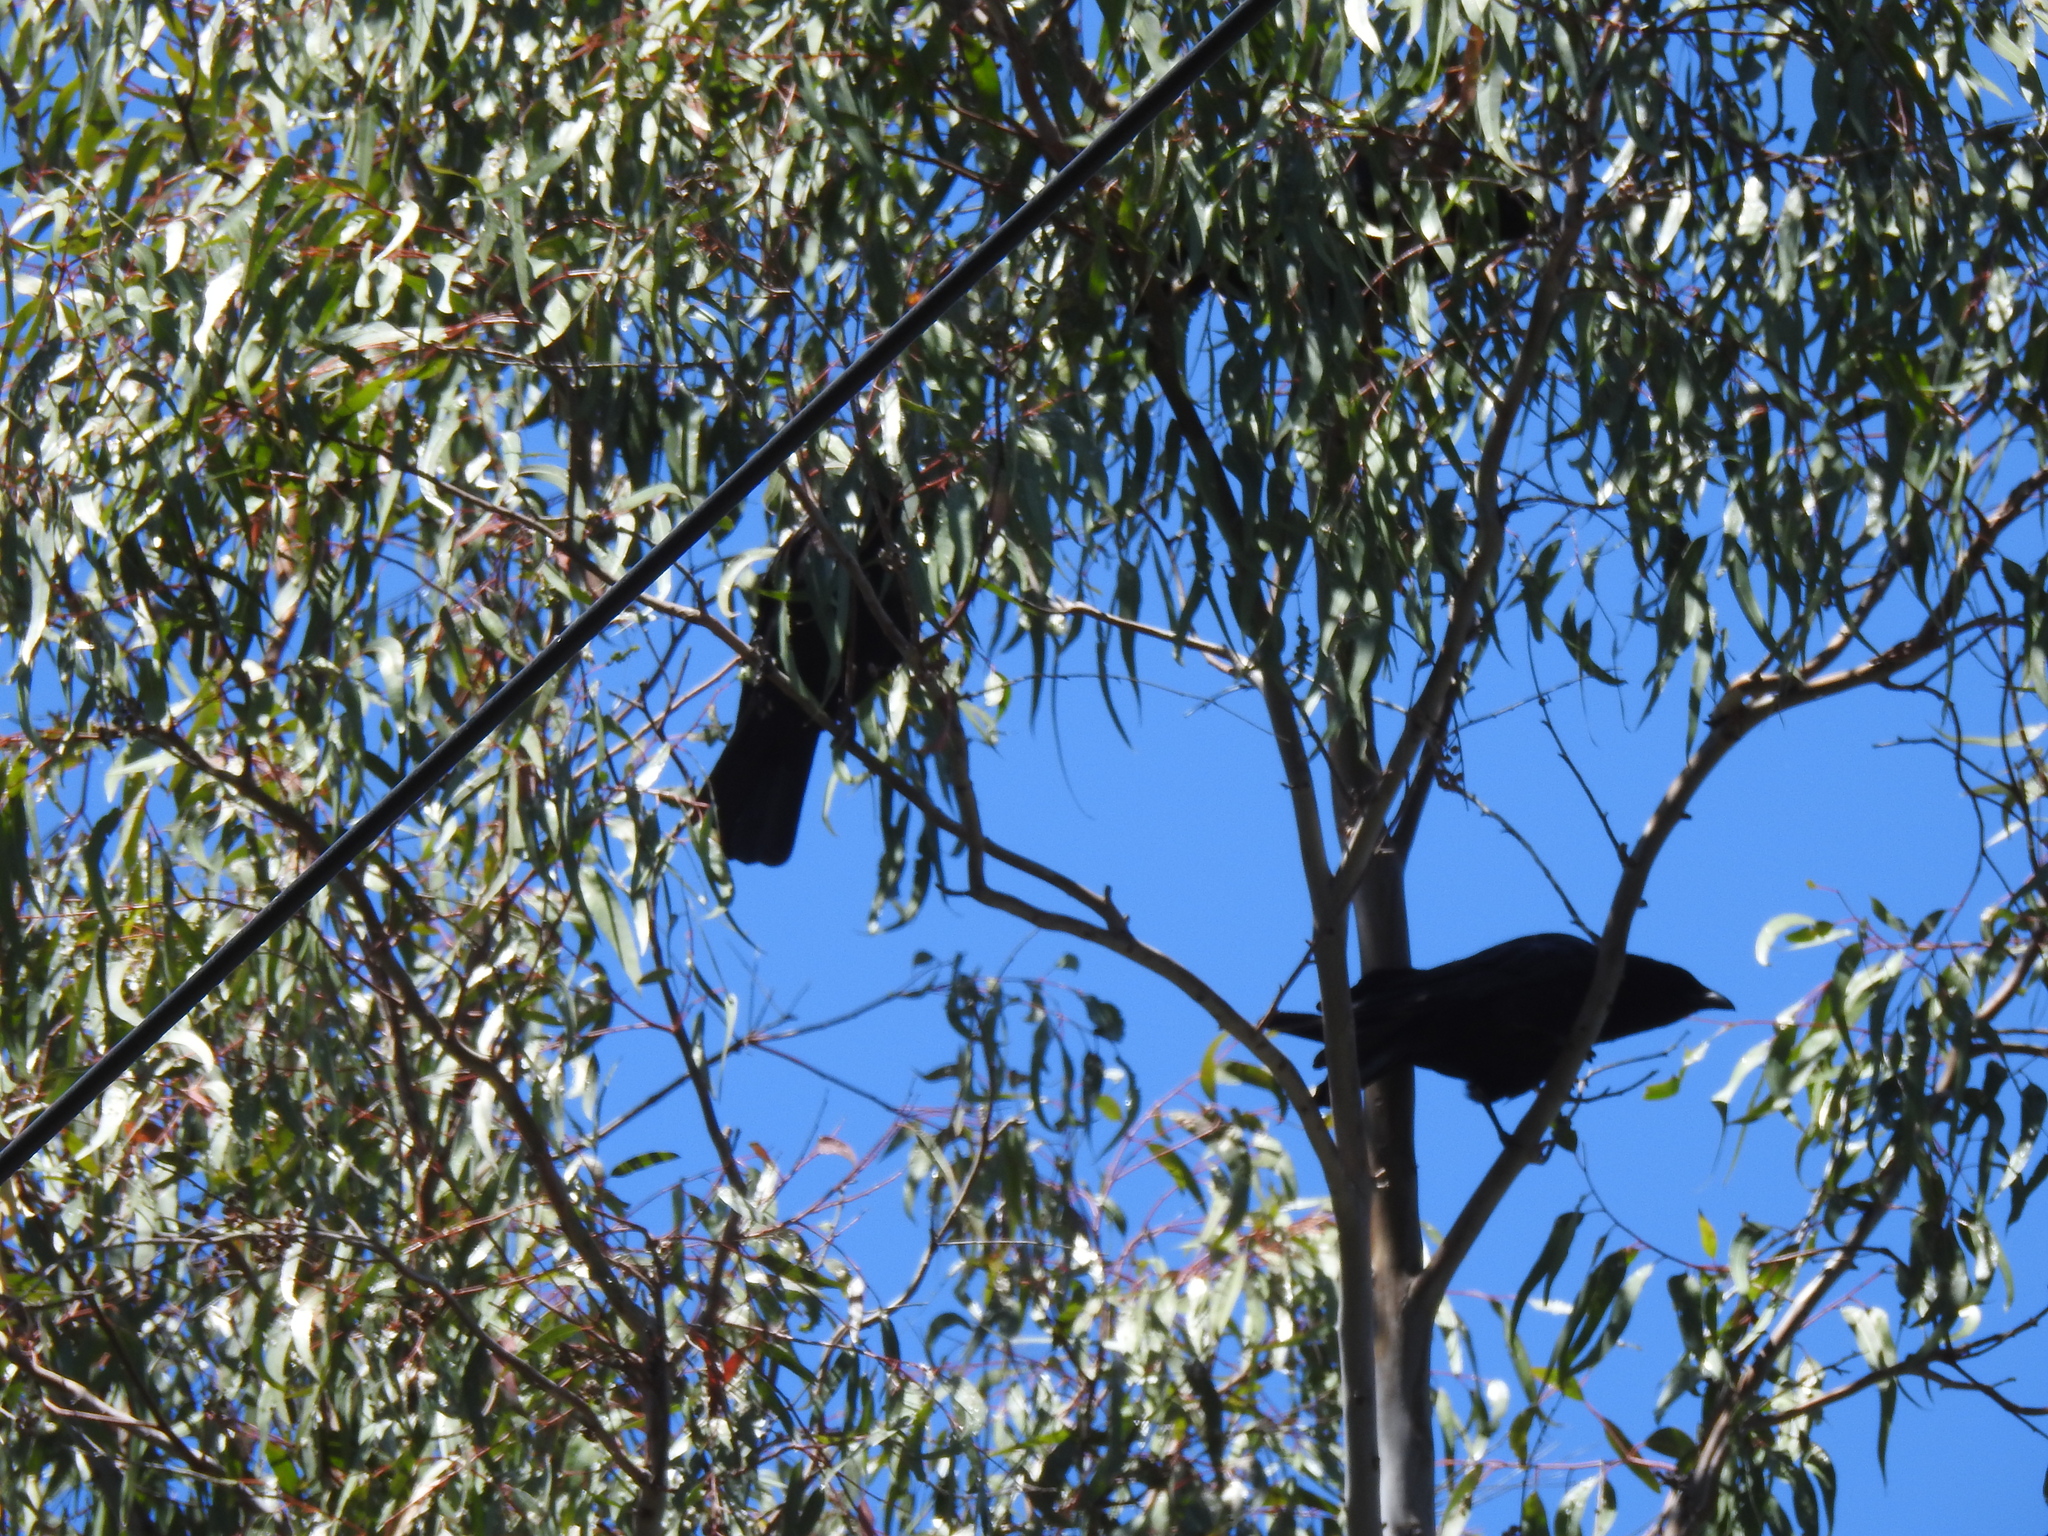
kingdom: Animalia
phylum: Chordata
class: Aves
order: Passeriformes
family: Corvidae
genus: Corvus
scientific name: Corvus brachyrhynchos
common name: American crow
